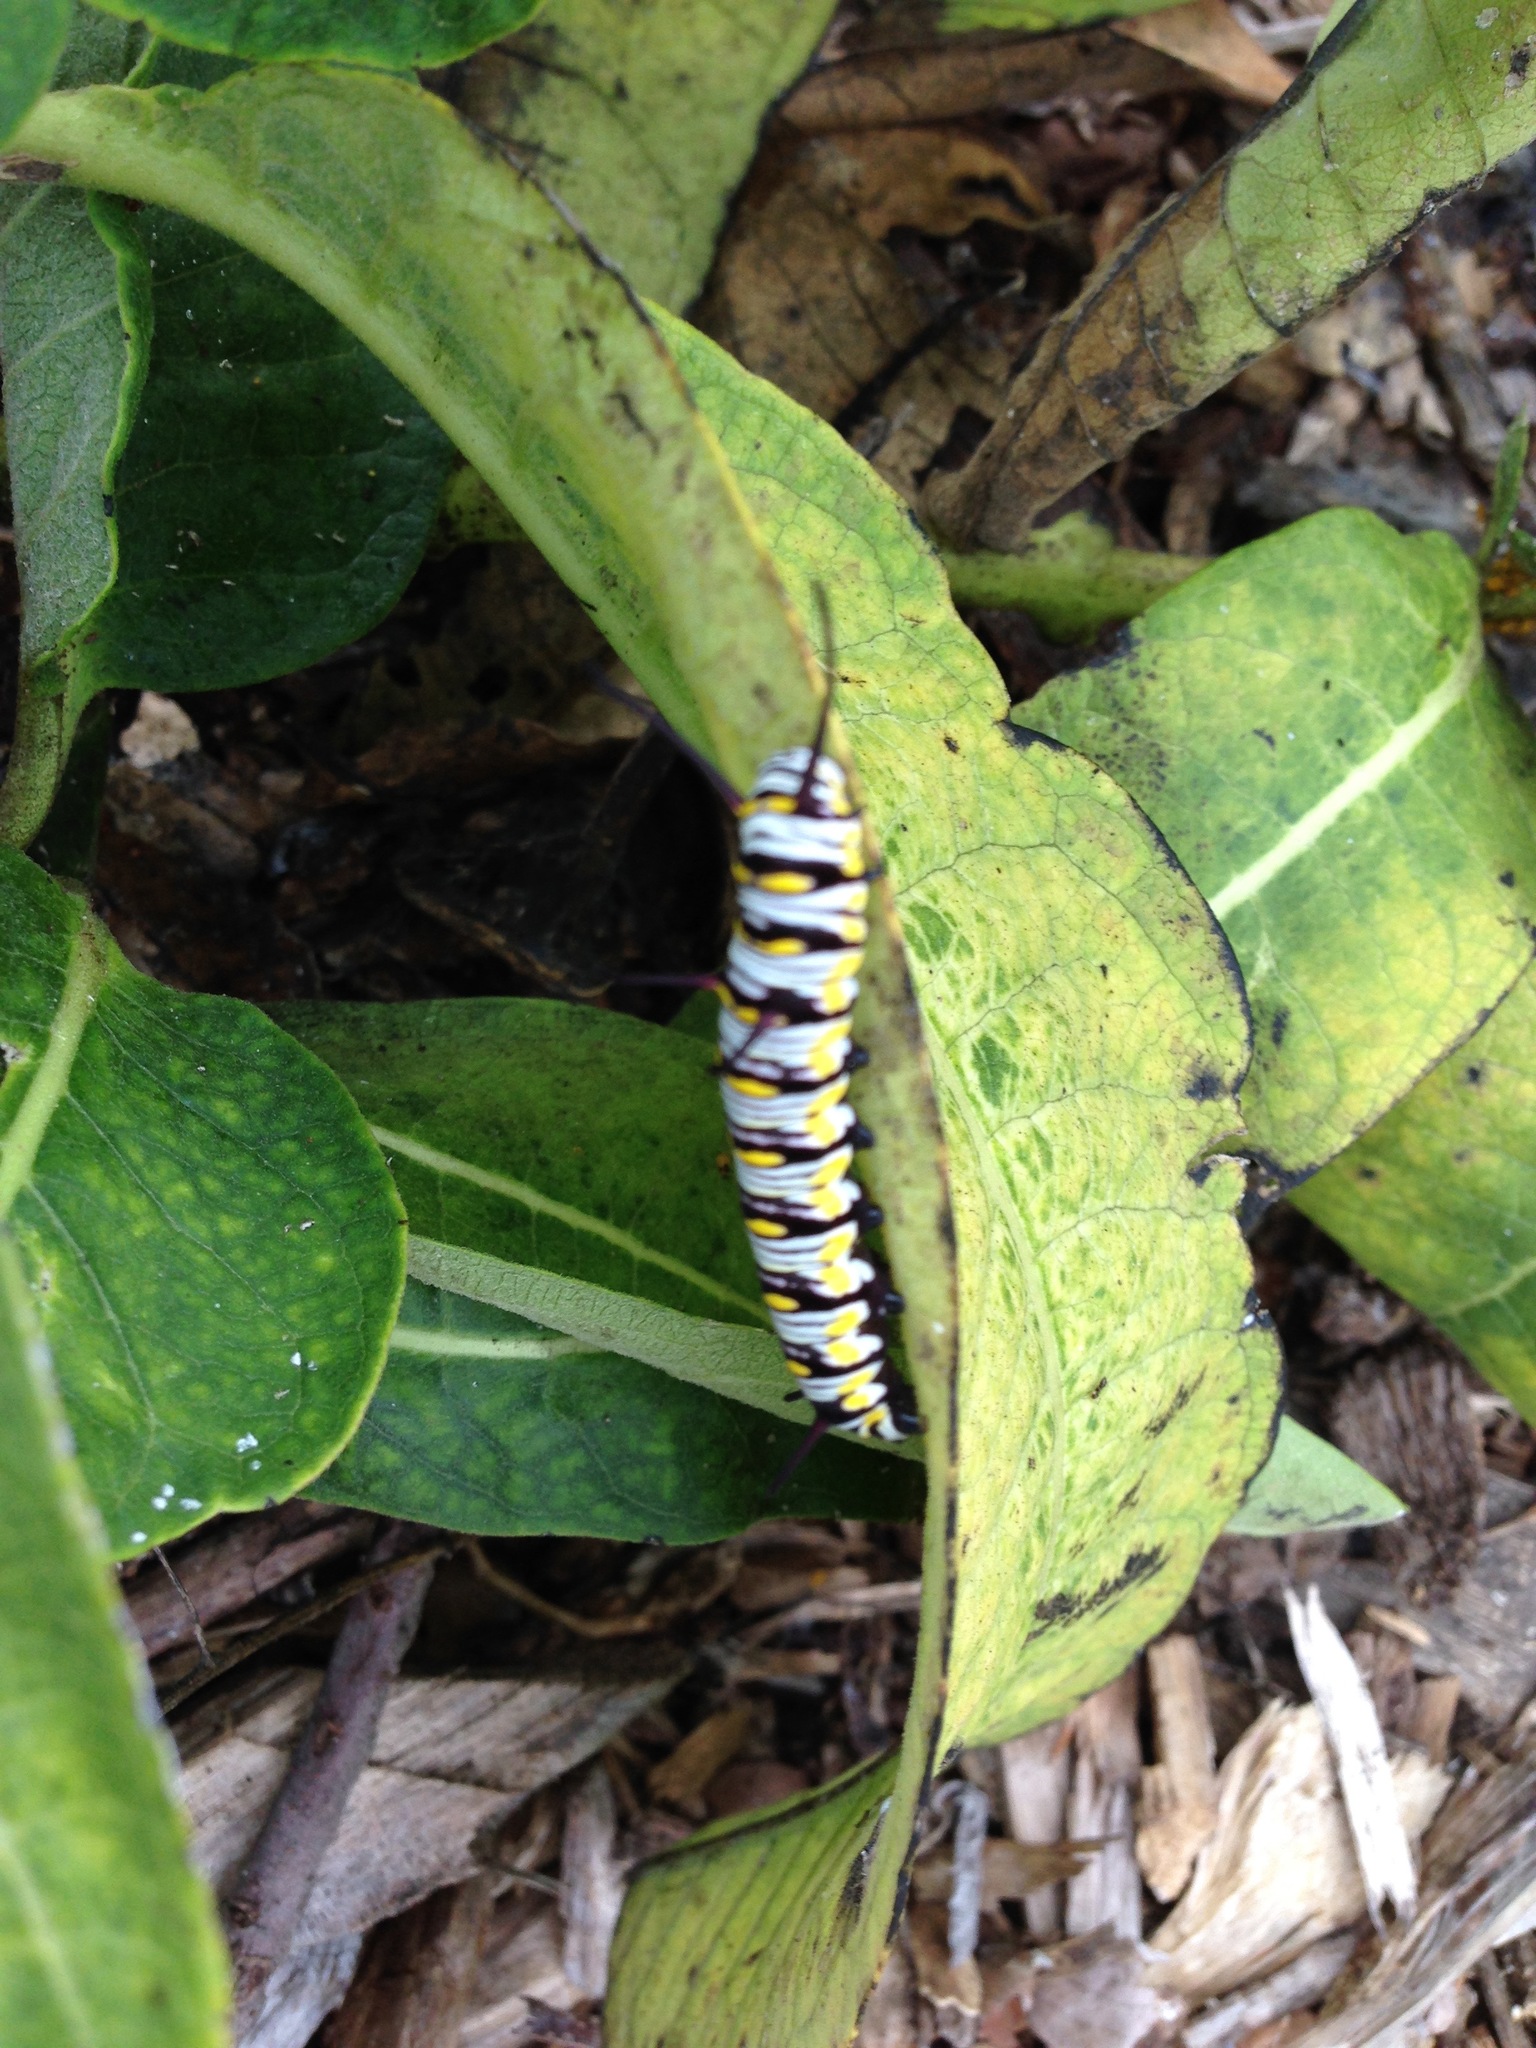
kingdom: Animalia
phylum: Arthropoda
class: Insecta
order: Lepidoptera
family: Nymphalidae
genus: Danaus
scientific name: Danaus gilippus
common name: Queen
